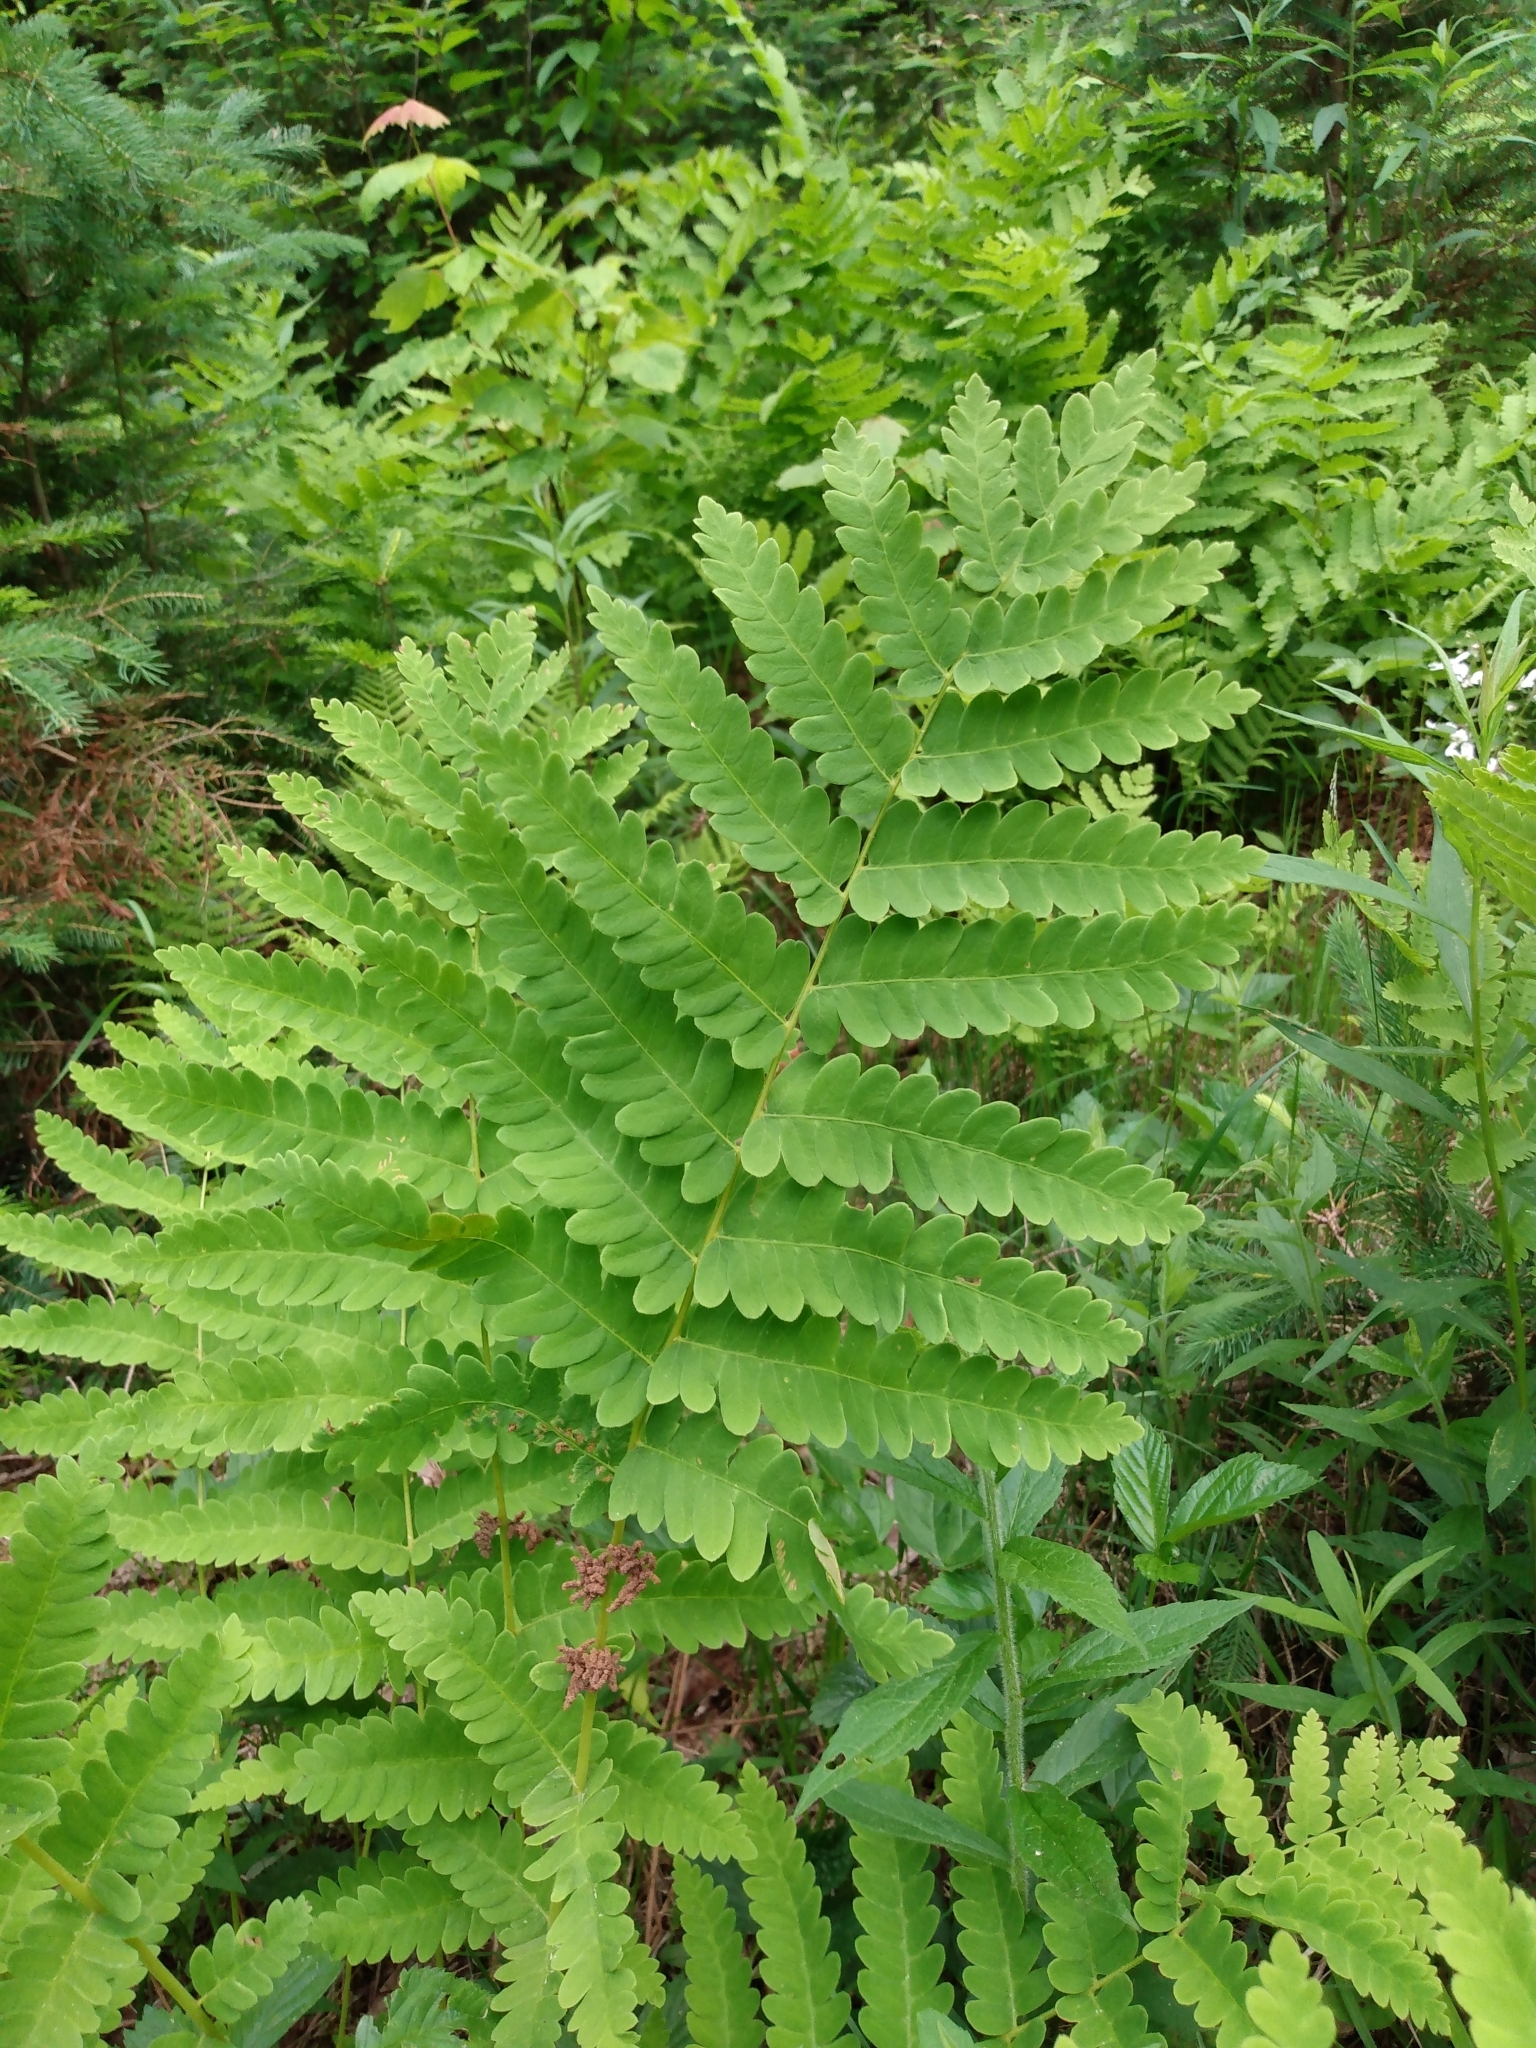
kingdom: Plantae
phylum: Tracheophyta
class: Polypodiopsida
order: Osmundales
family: Osmundaceae
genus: Claytosmunda
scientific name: Claytosmunda claytoniana
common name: Clayton's fern
